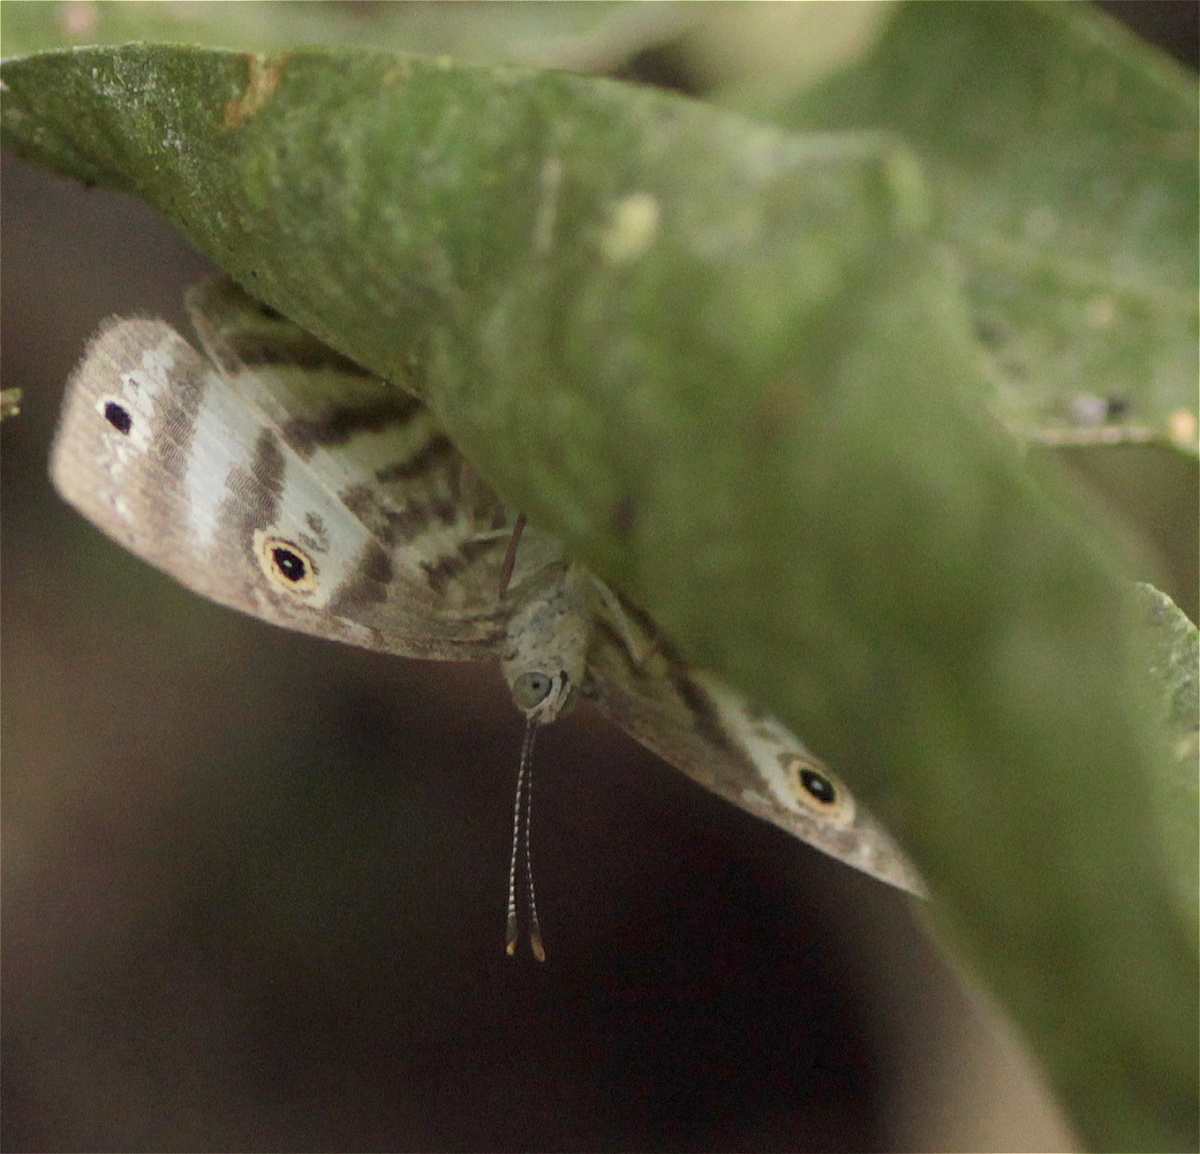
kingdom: Animalia
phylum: Arthropoda
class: Insecta
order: Lepidoptera
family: Riodinidae
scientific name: Riodinidae
